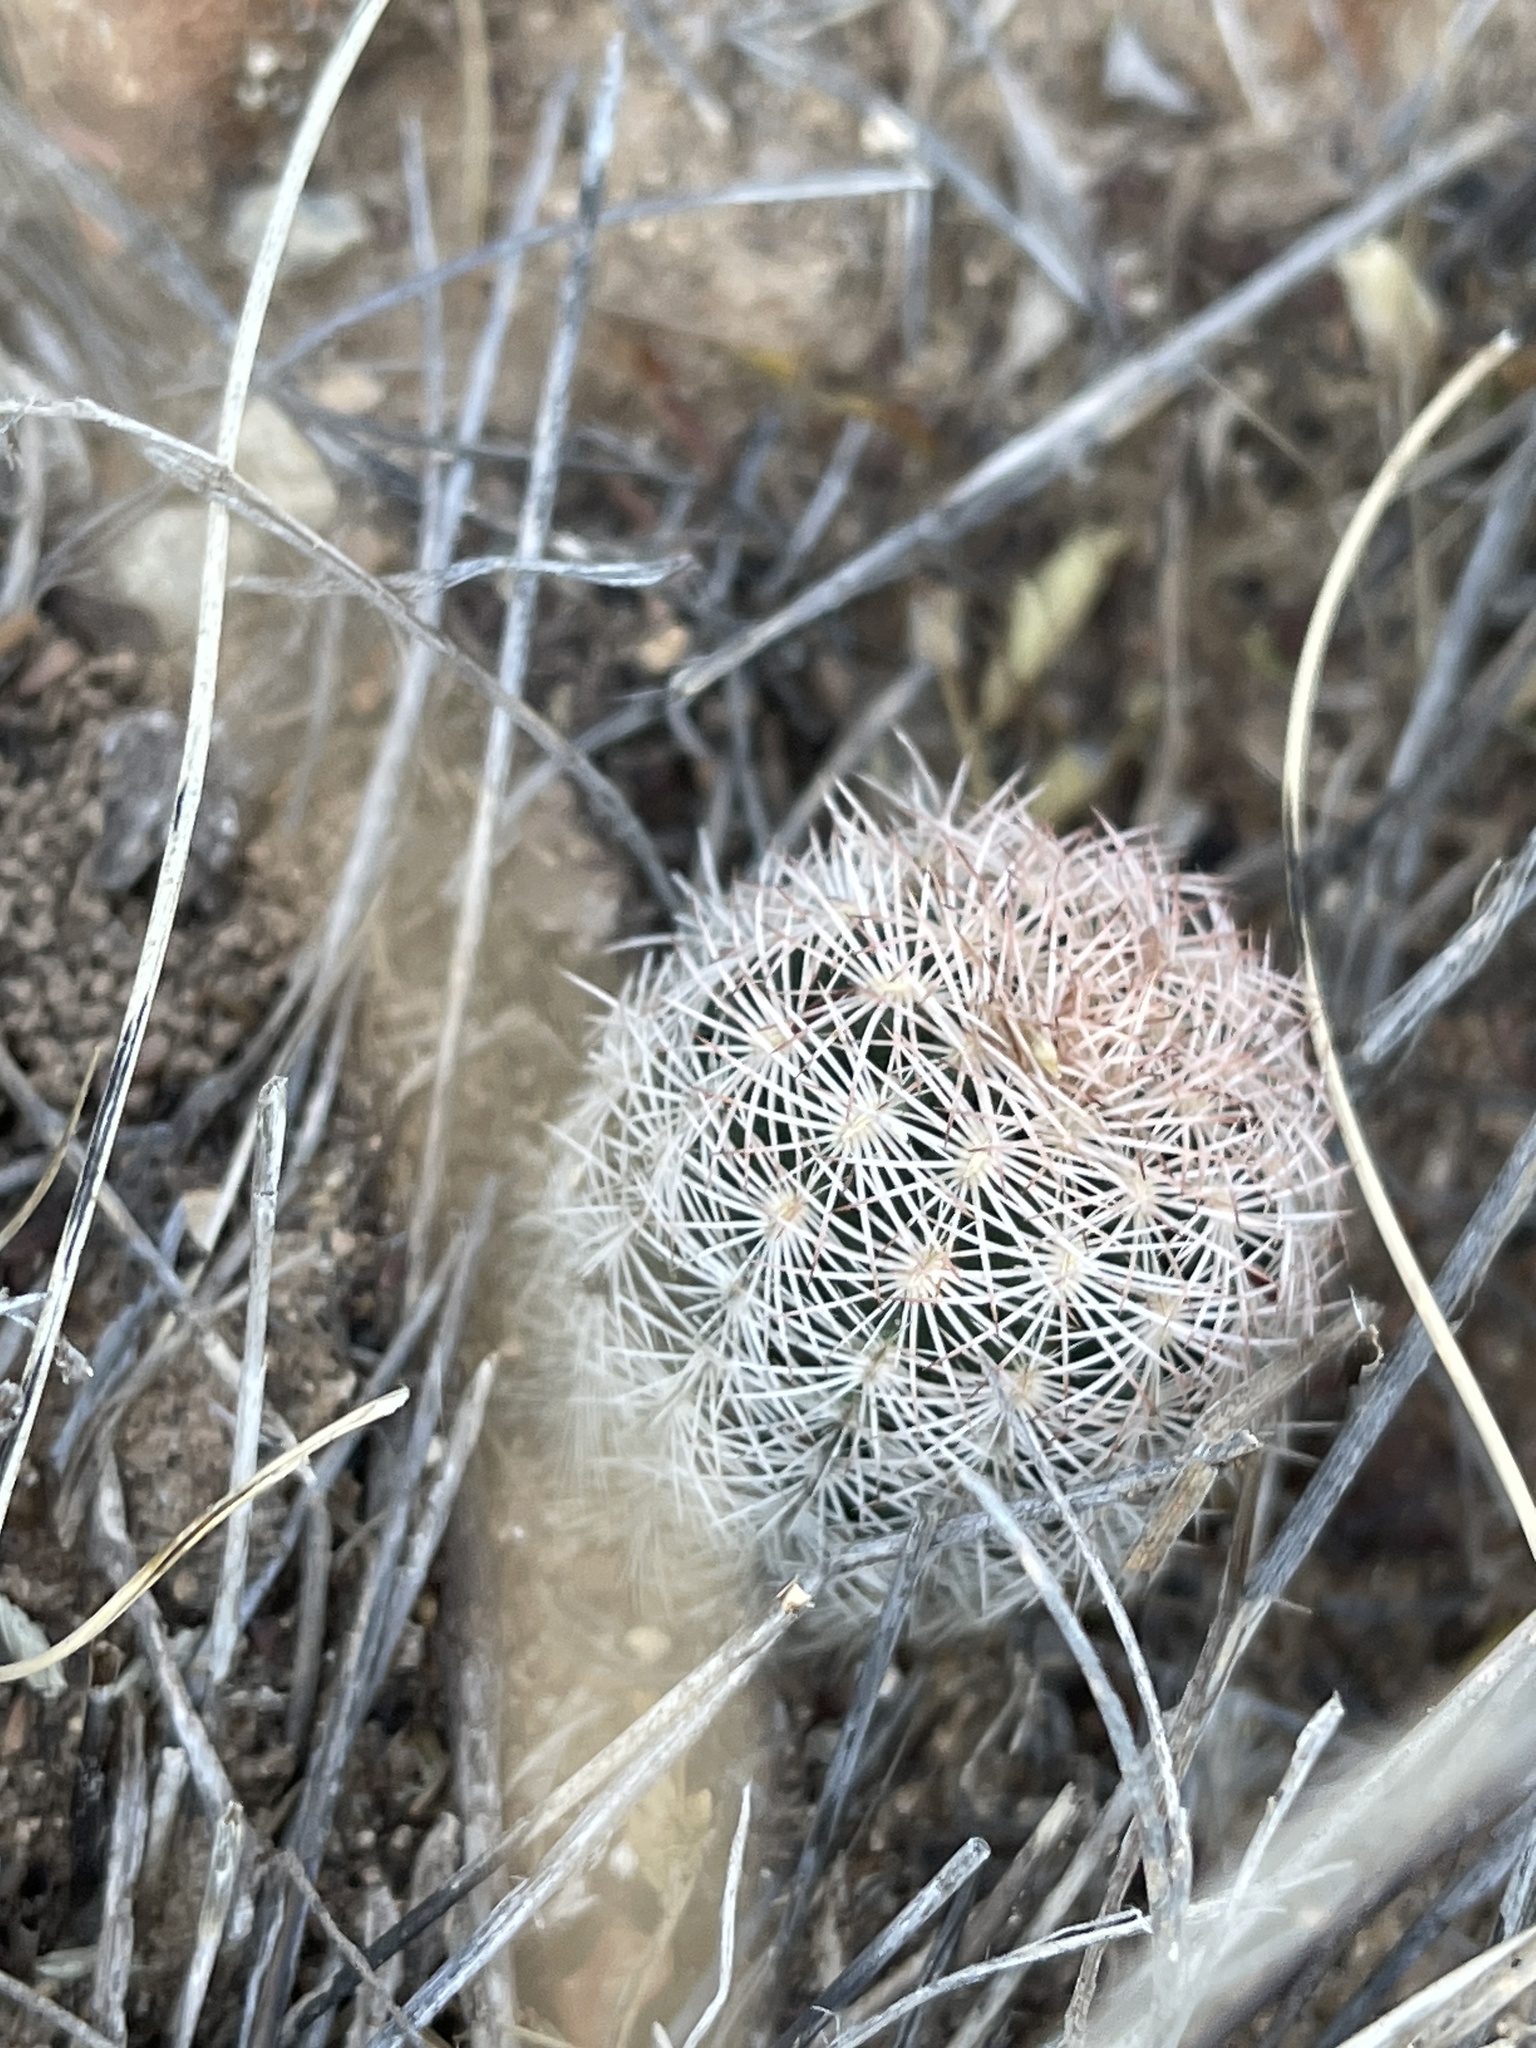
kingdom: Plantae
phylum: Tracheophyta
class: Magnoliopsida
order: Caryophyllales
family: Cactaceae
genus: Echinocereus
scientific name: Echinocereus reichenbachii
